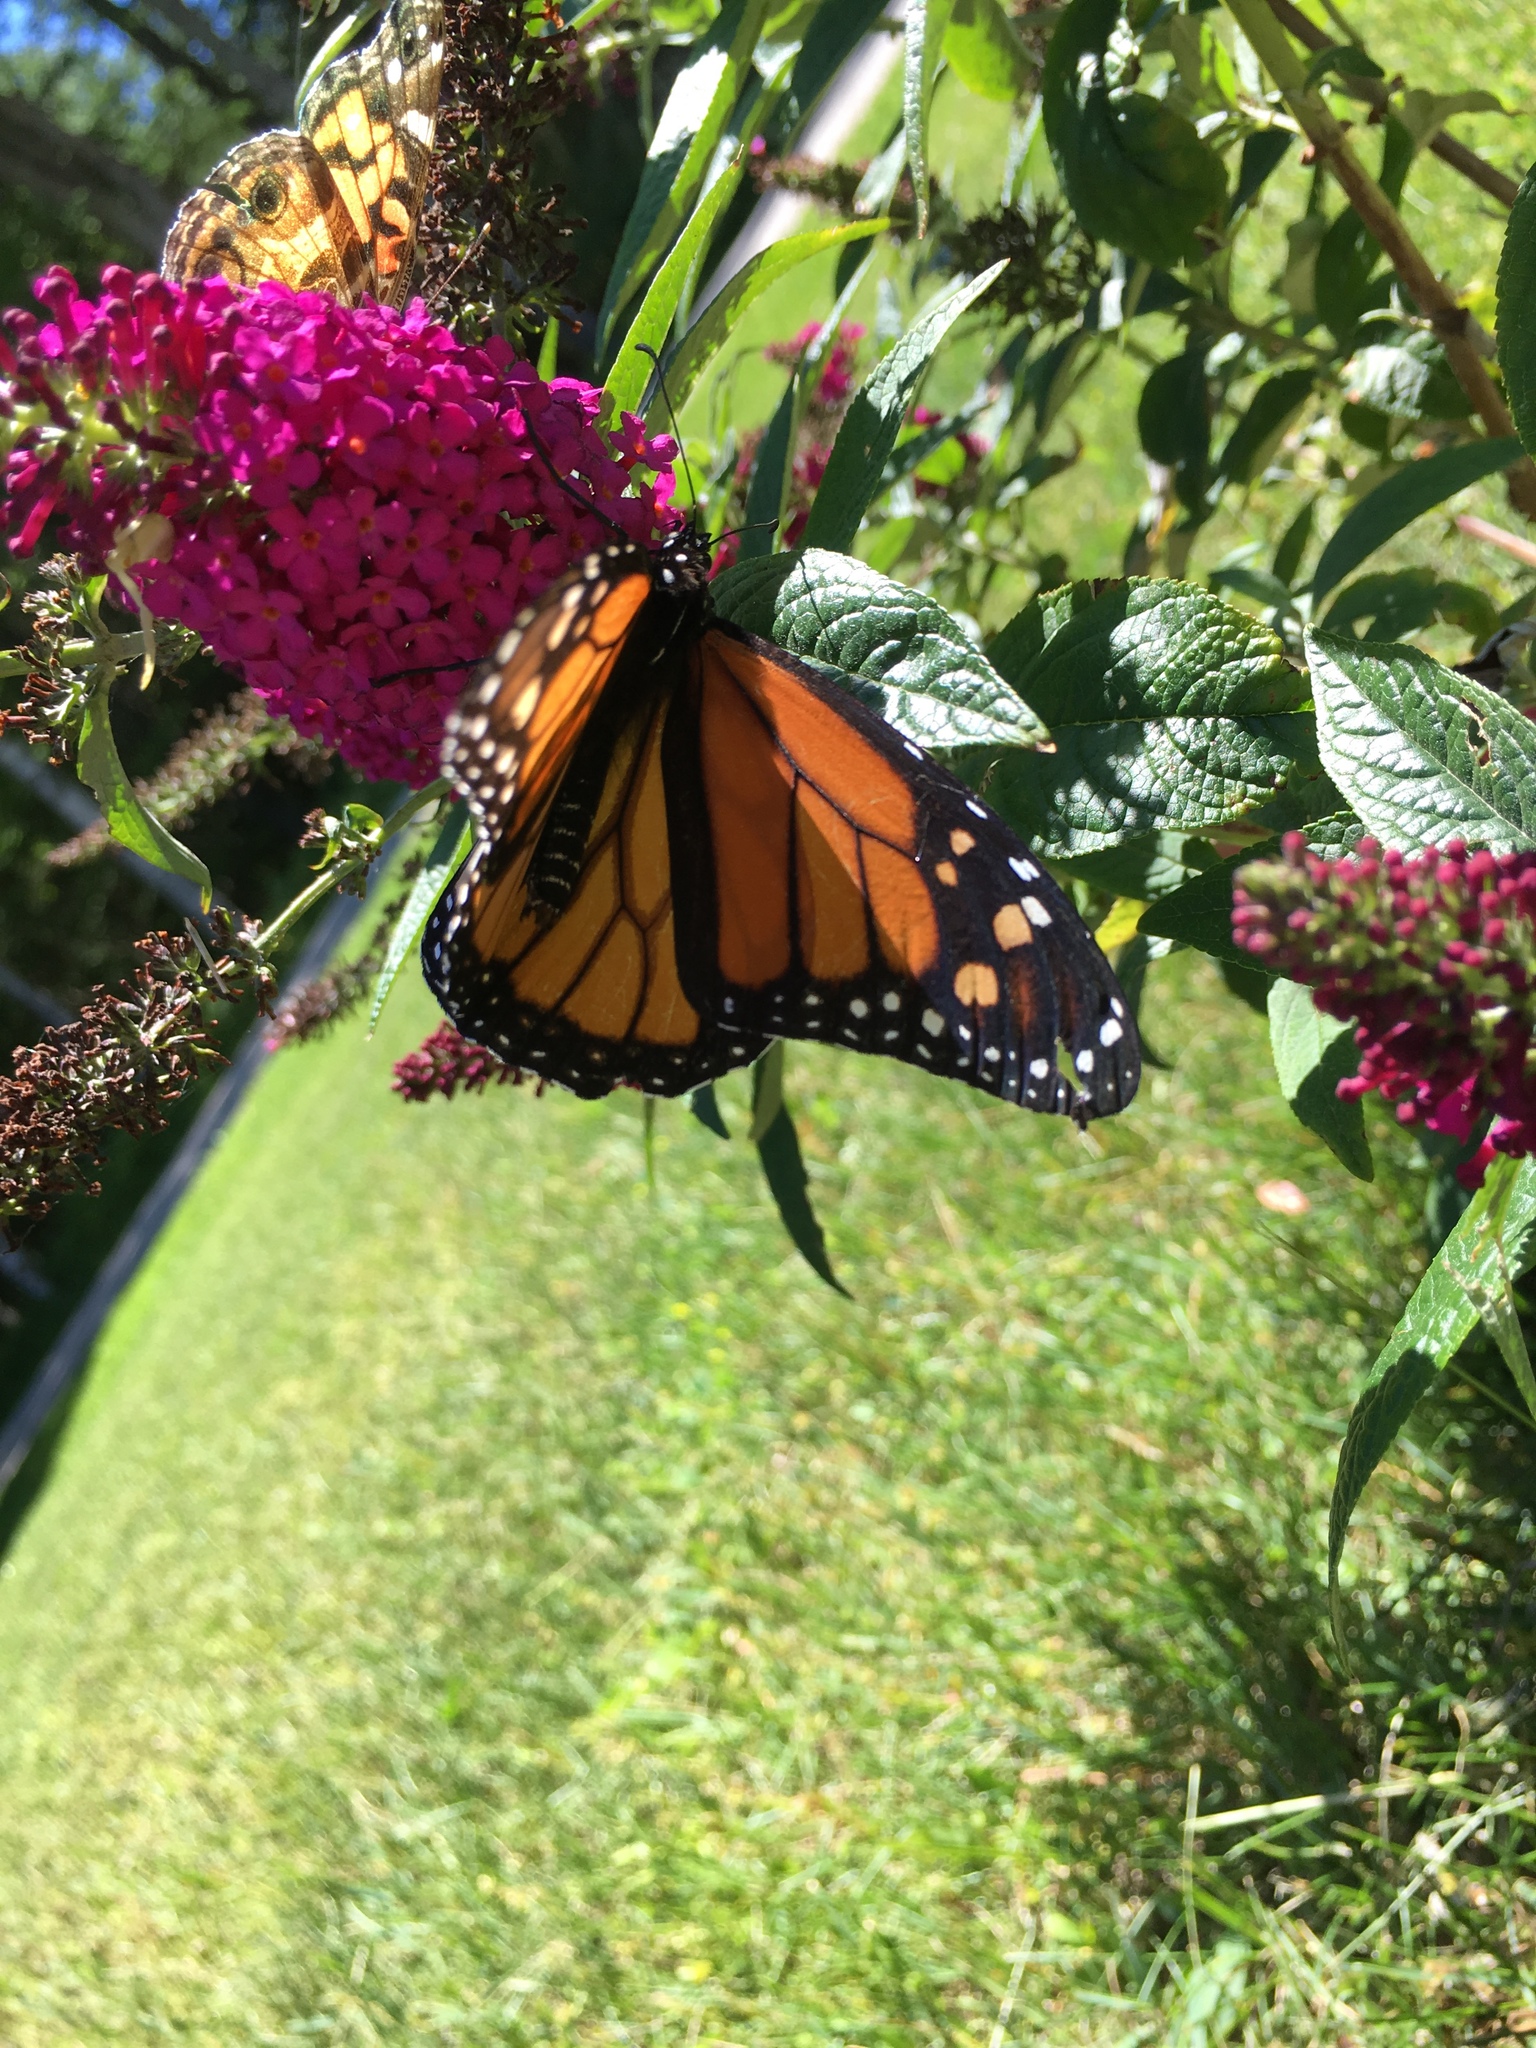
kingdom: Animalia
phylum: Arthropoda
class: Insecta
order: Lepidoptera
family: Nymphalidae
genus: Danaus
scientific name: Danaus plexippus
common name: Monarch
